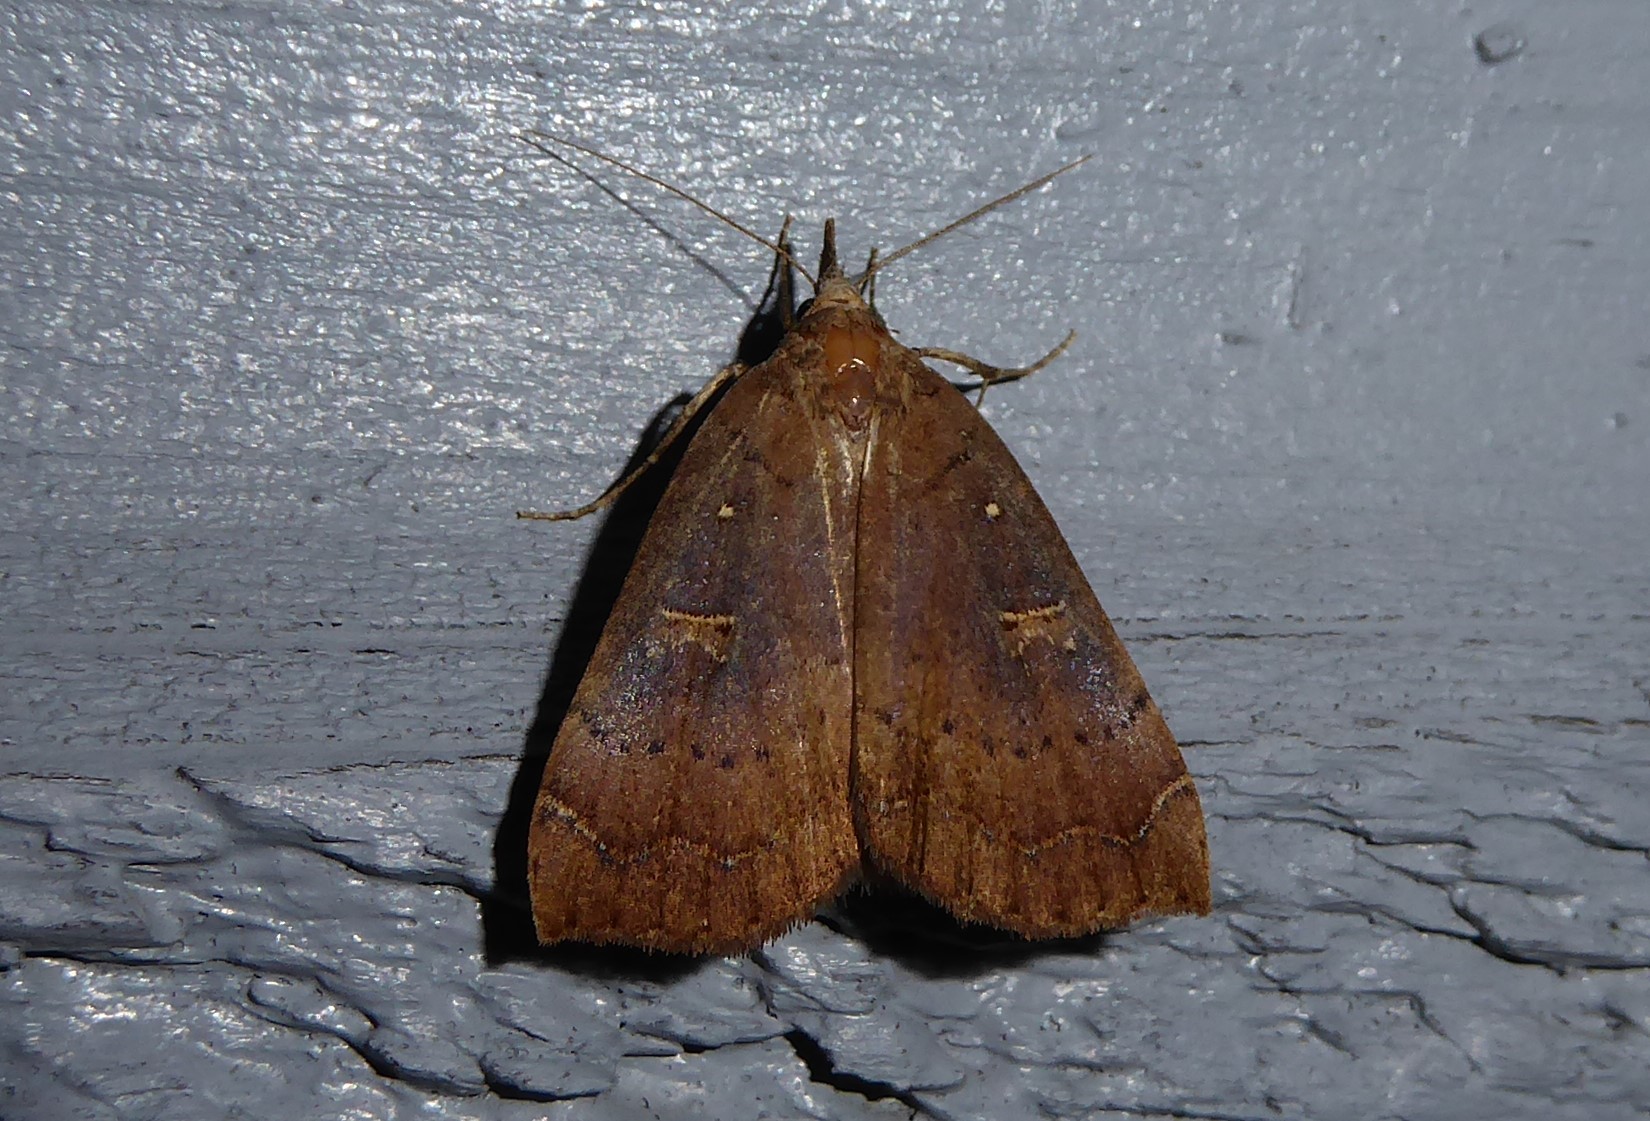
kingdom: Animalia
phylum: Arthropoda
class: Insecta
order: Lepidoptera
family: Erebidae
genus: Rhapsa
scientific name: Rhapsa scotosialis
